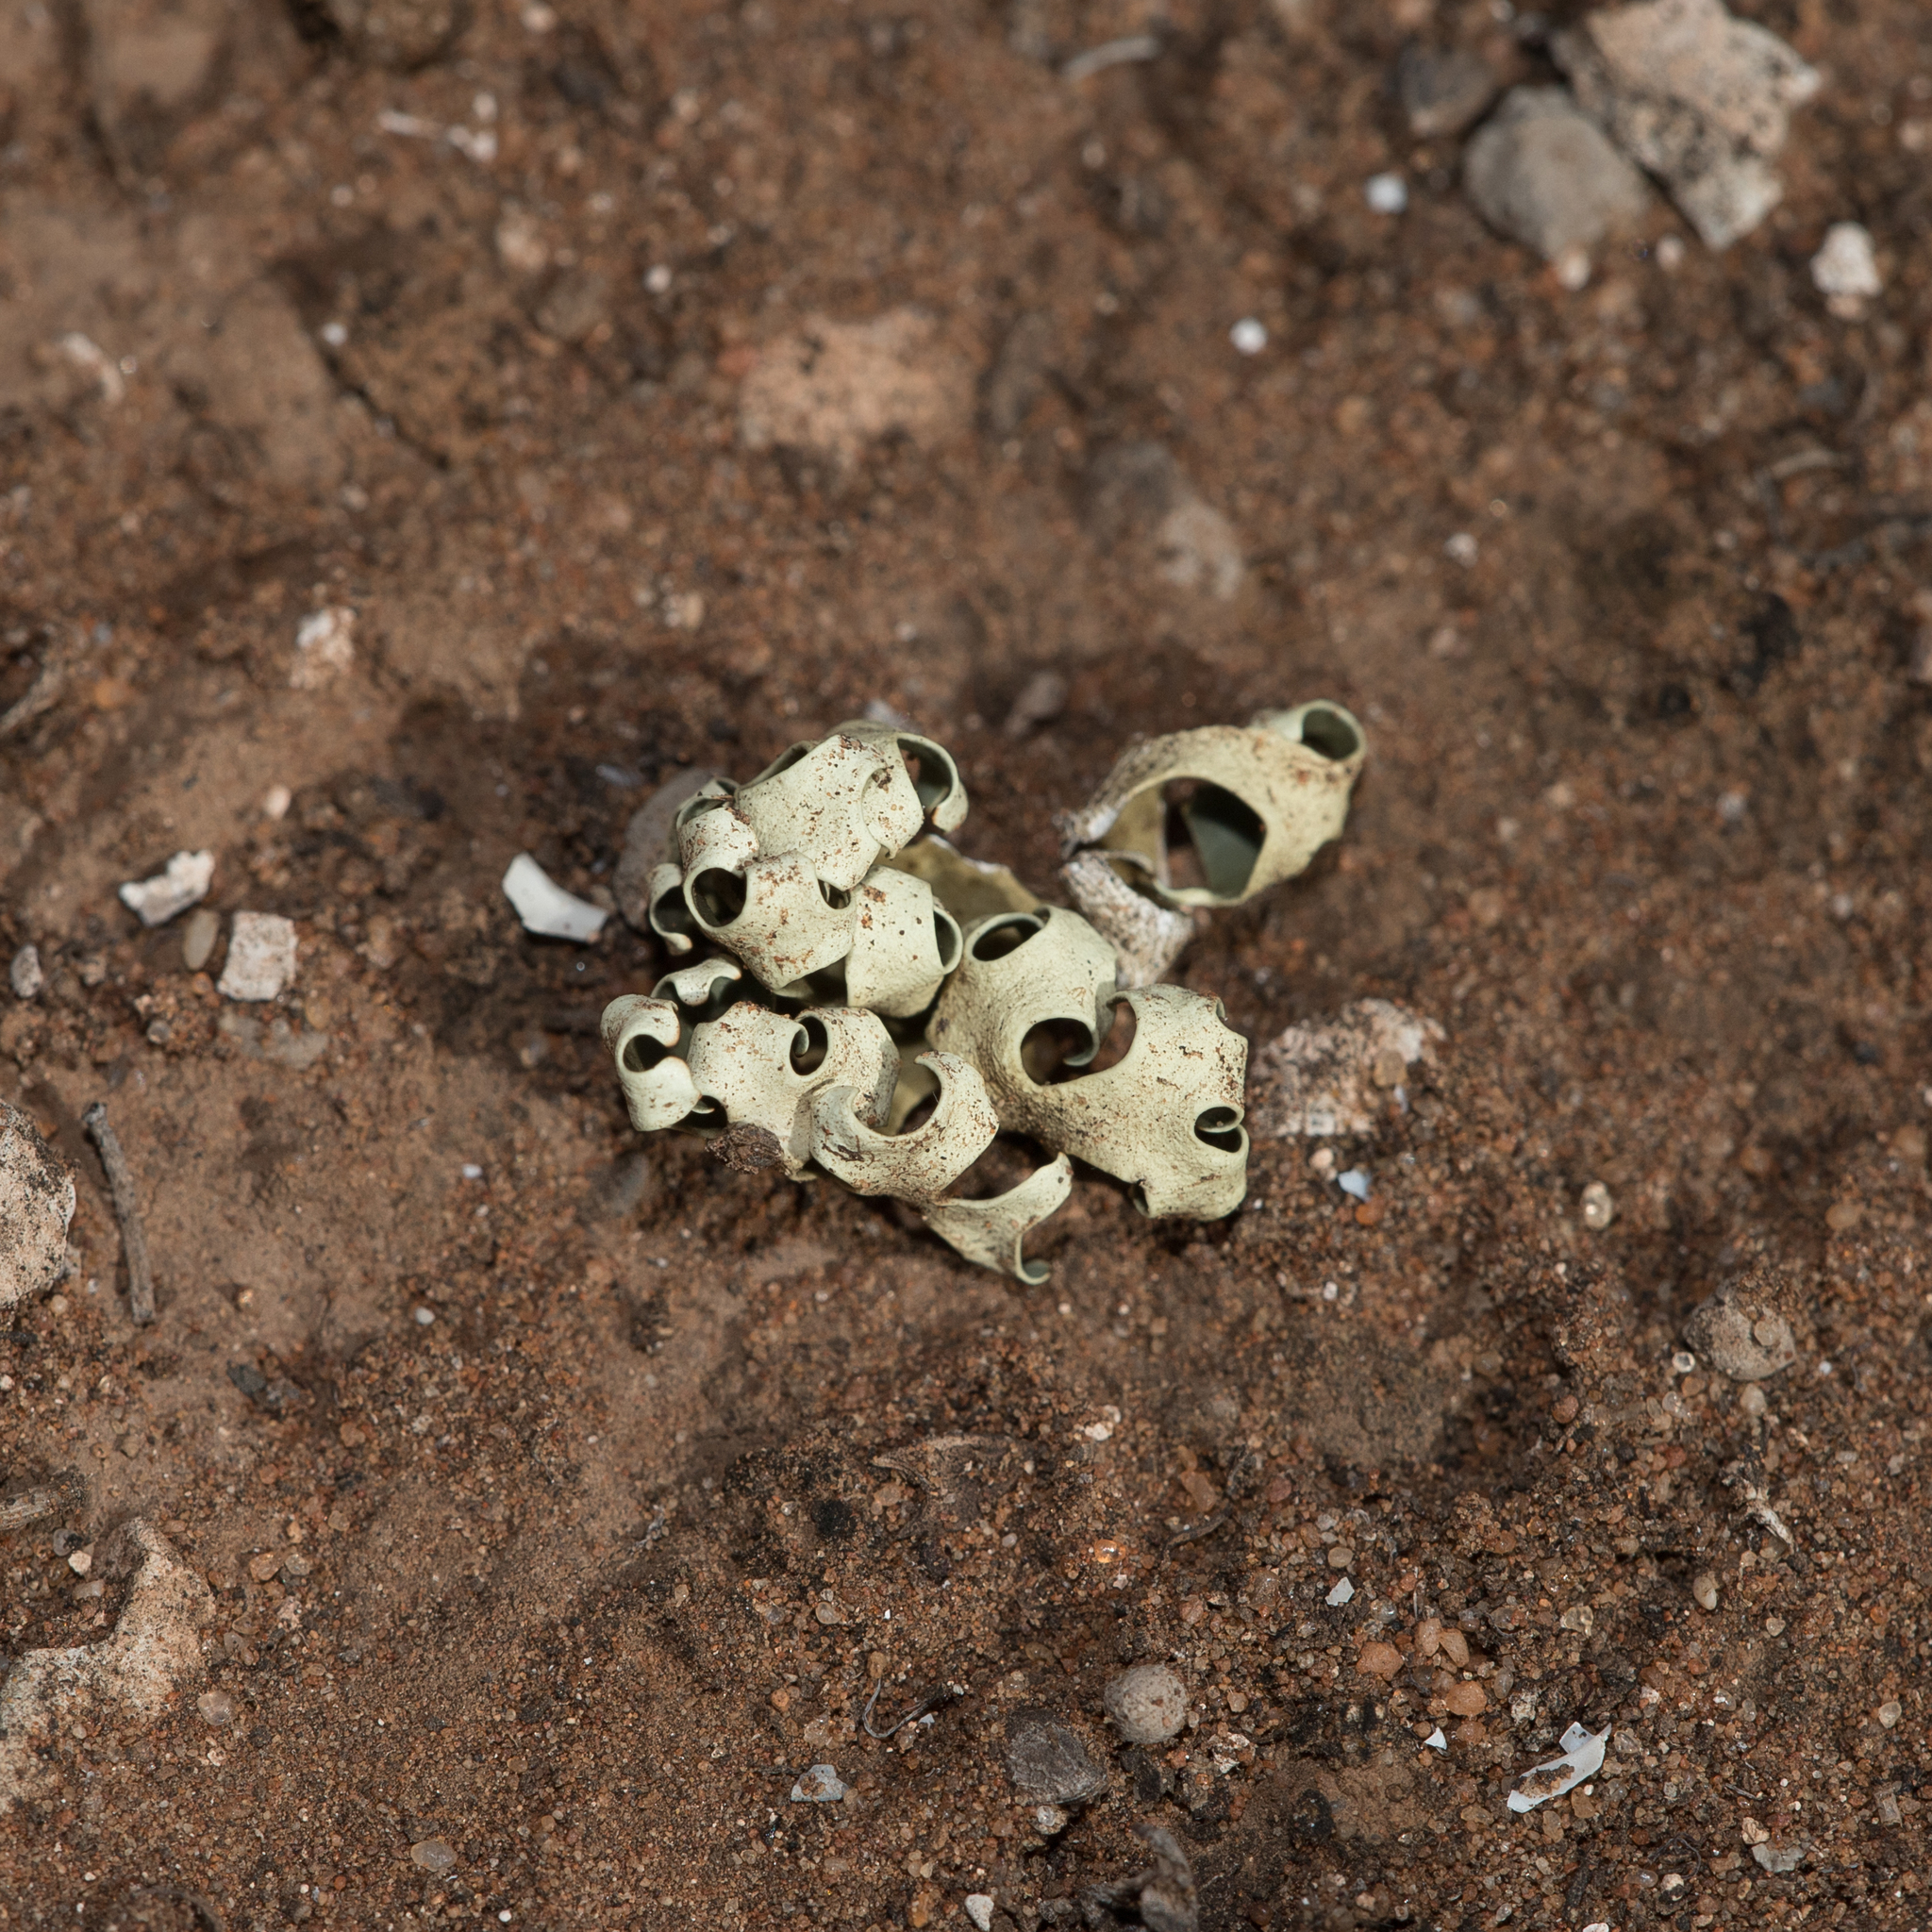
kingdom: Fungi
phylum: Ascomycota
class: Lecanoromycetes
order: Lecanorales
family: Parmeliaceae
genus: Xanthoparmelia
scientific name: Xanthoparmelia semiviridis
